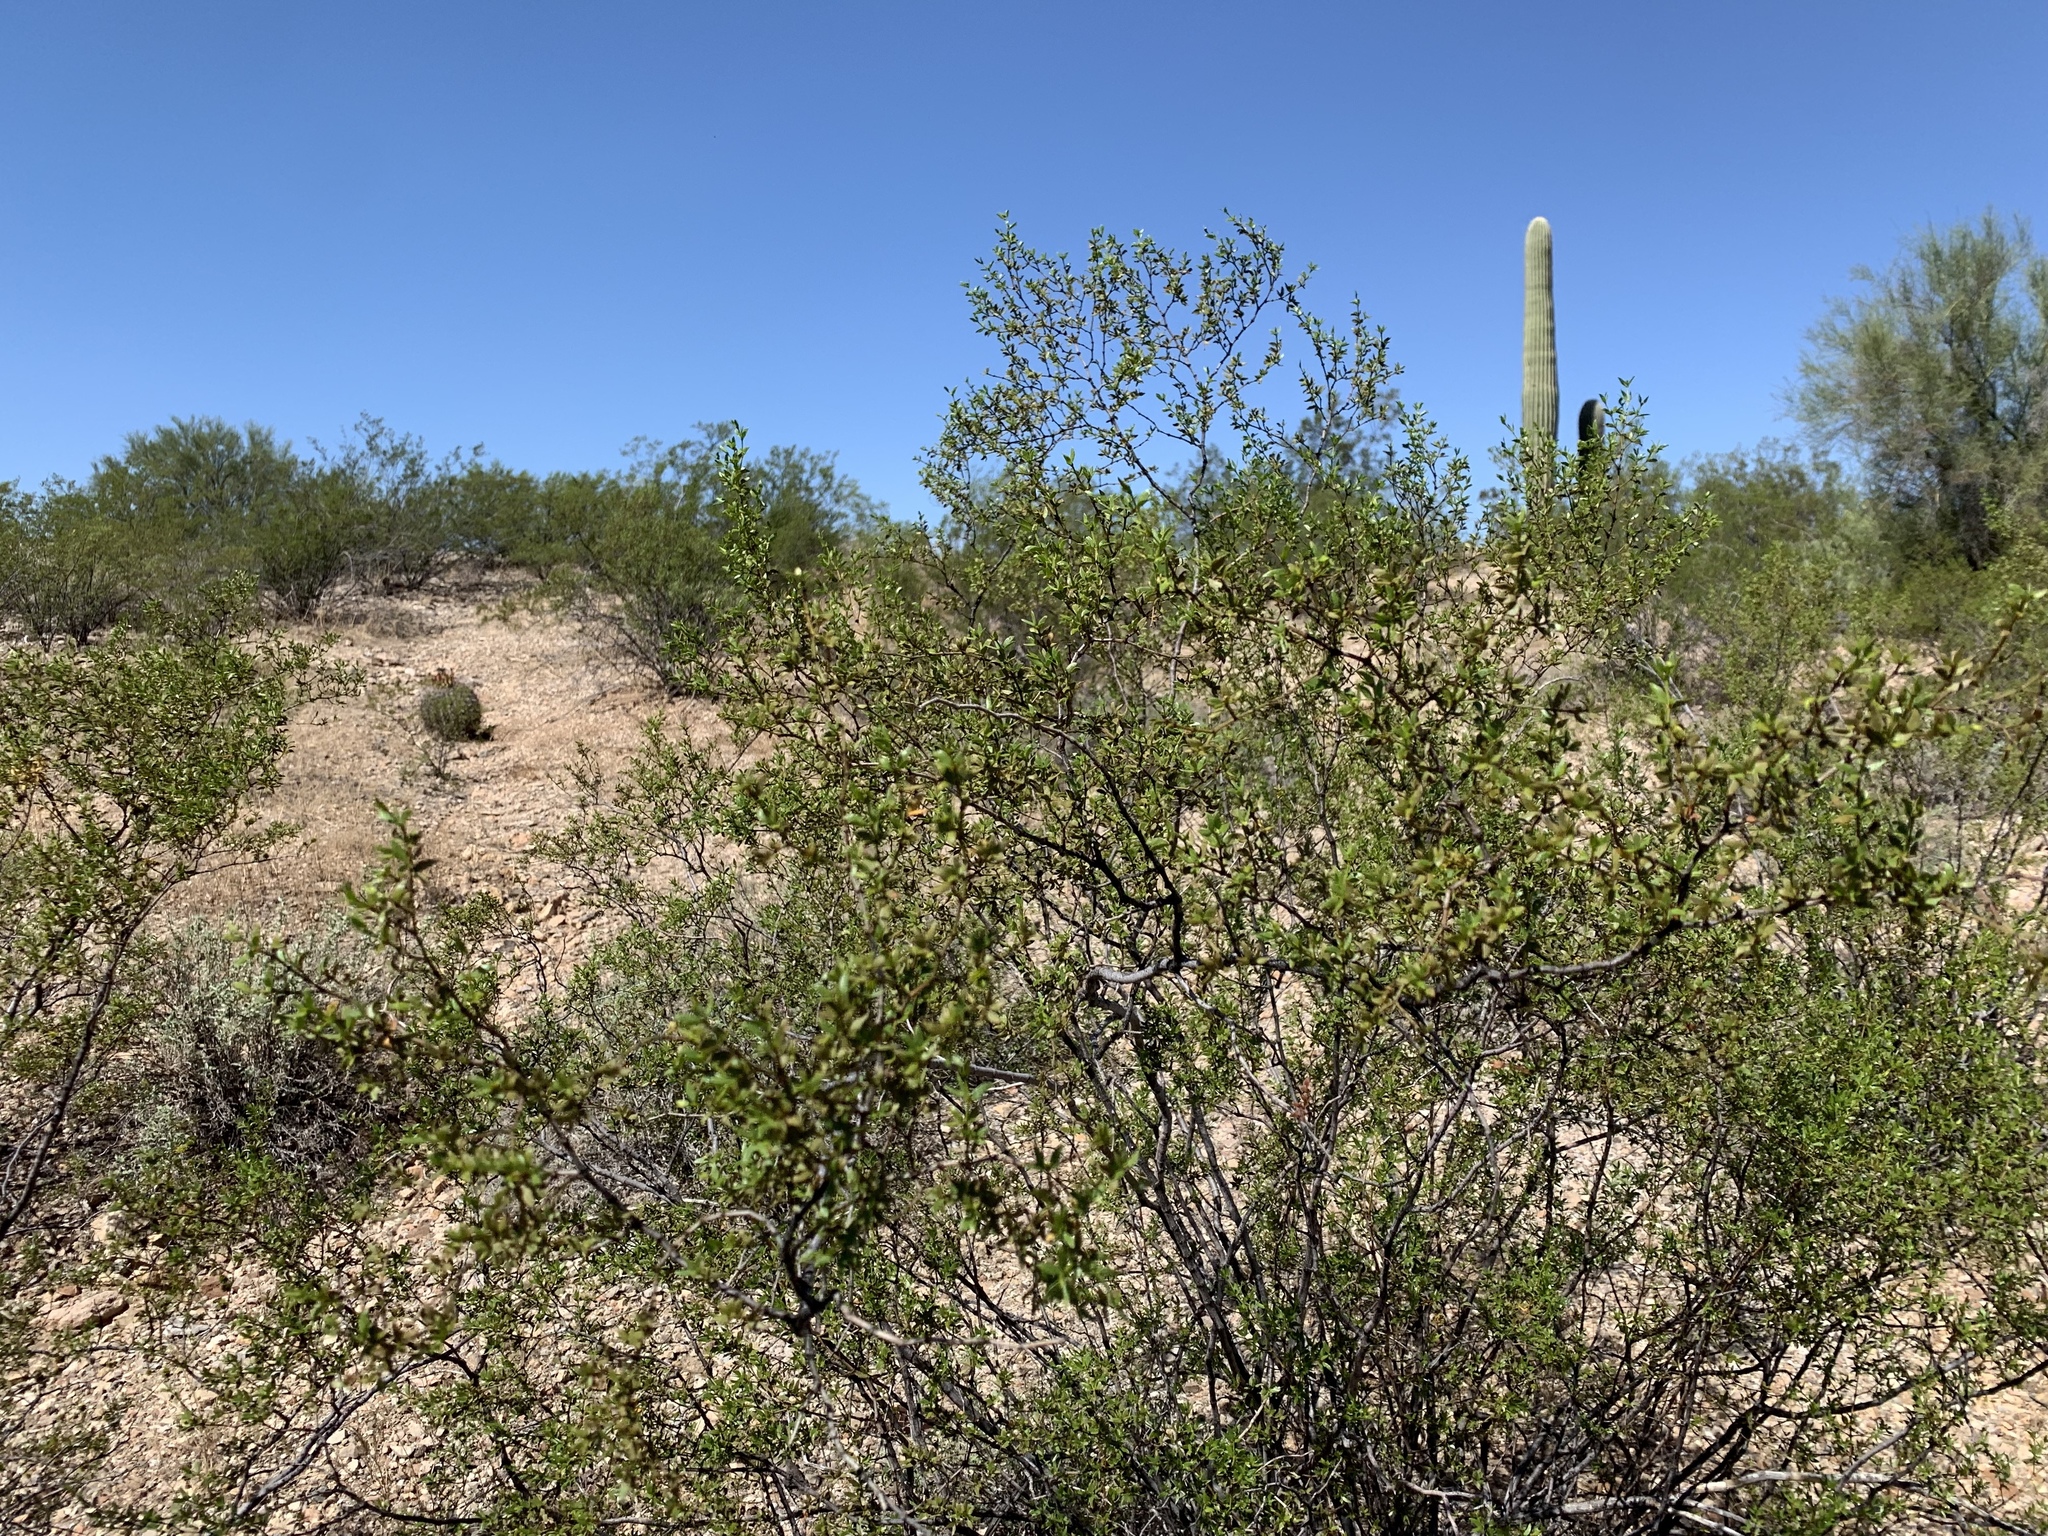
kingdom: Plantae
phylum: Tracheophyta
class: Magnoliopsida
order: Zygophyllales
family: Zygophyllaceae
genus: Larrea
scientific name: Larrea tridentata
